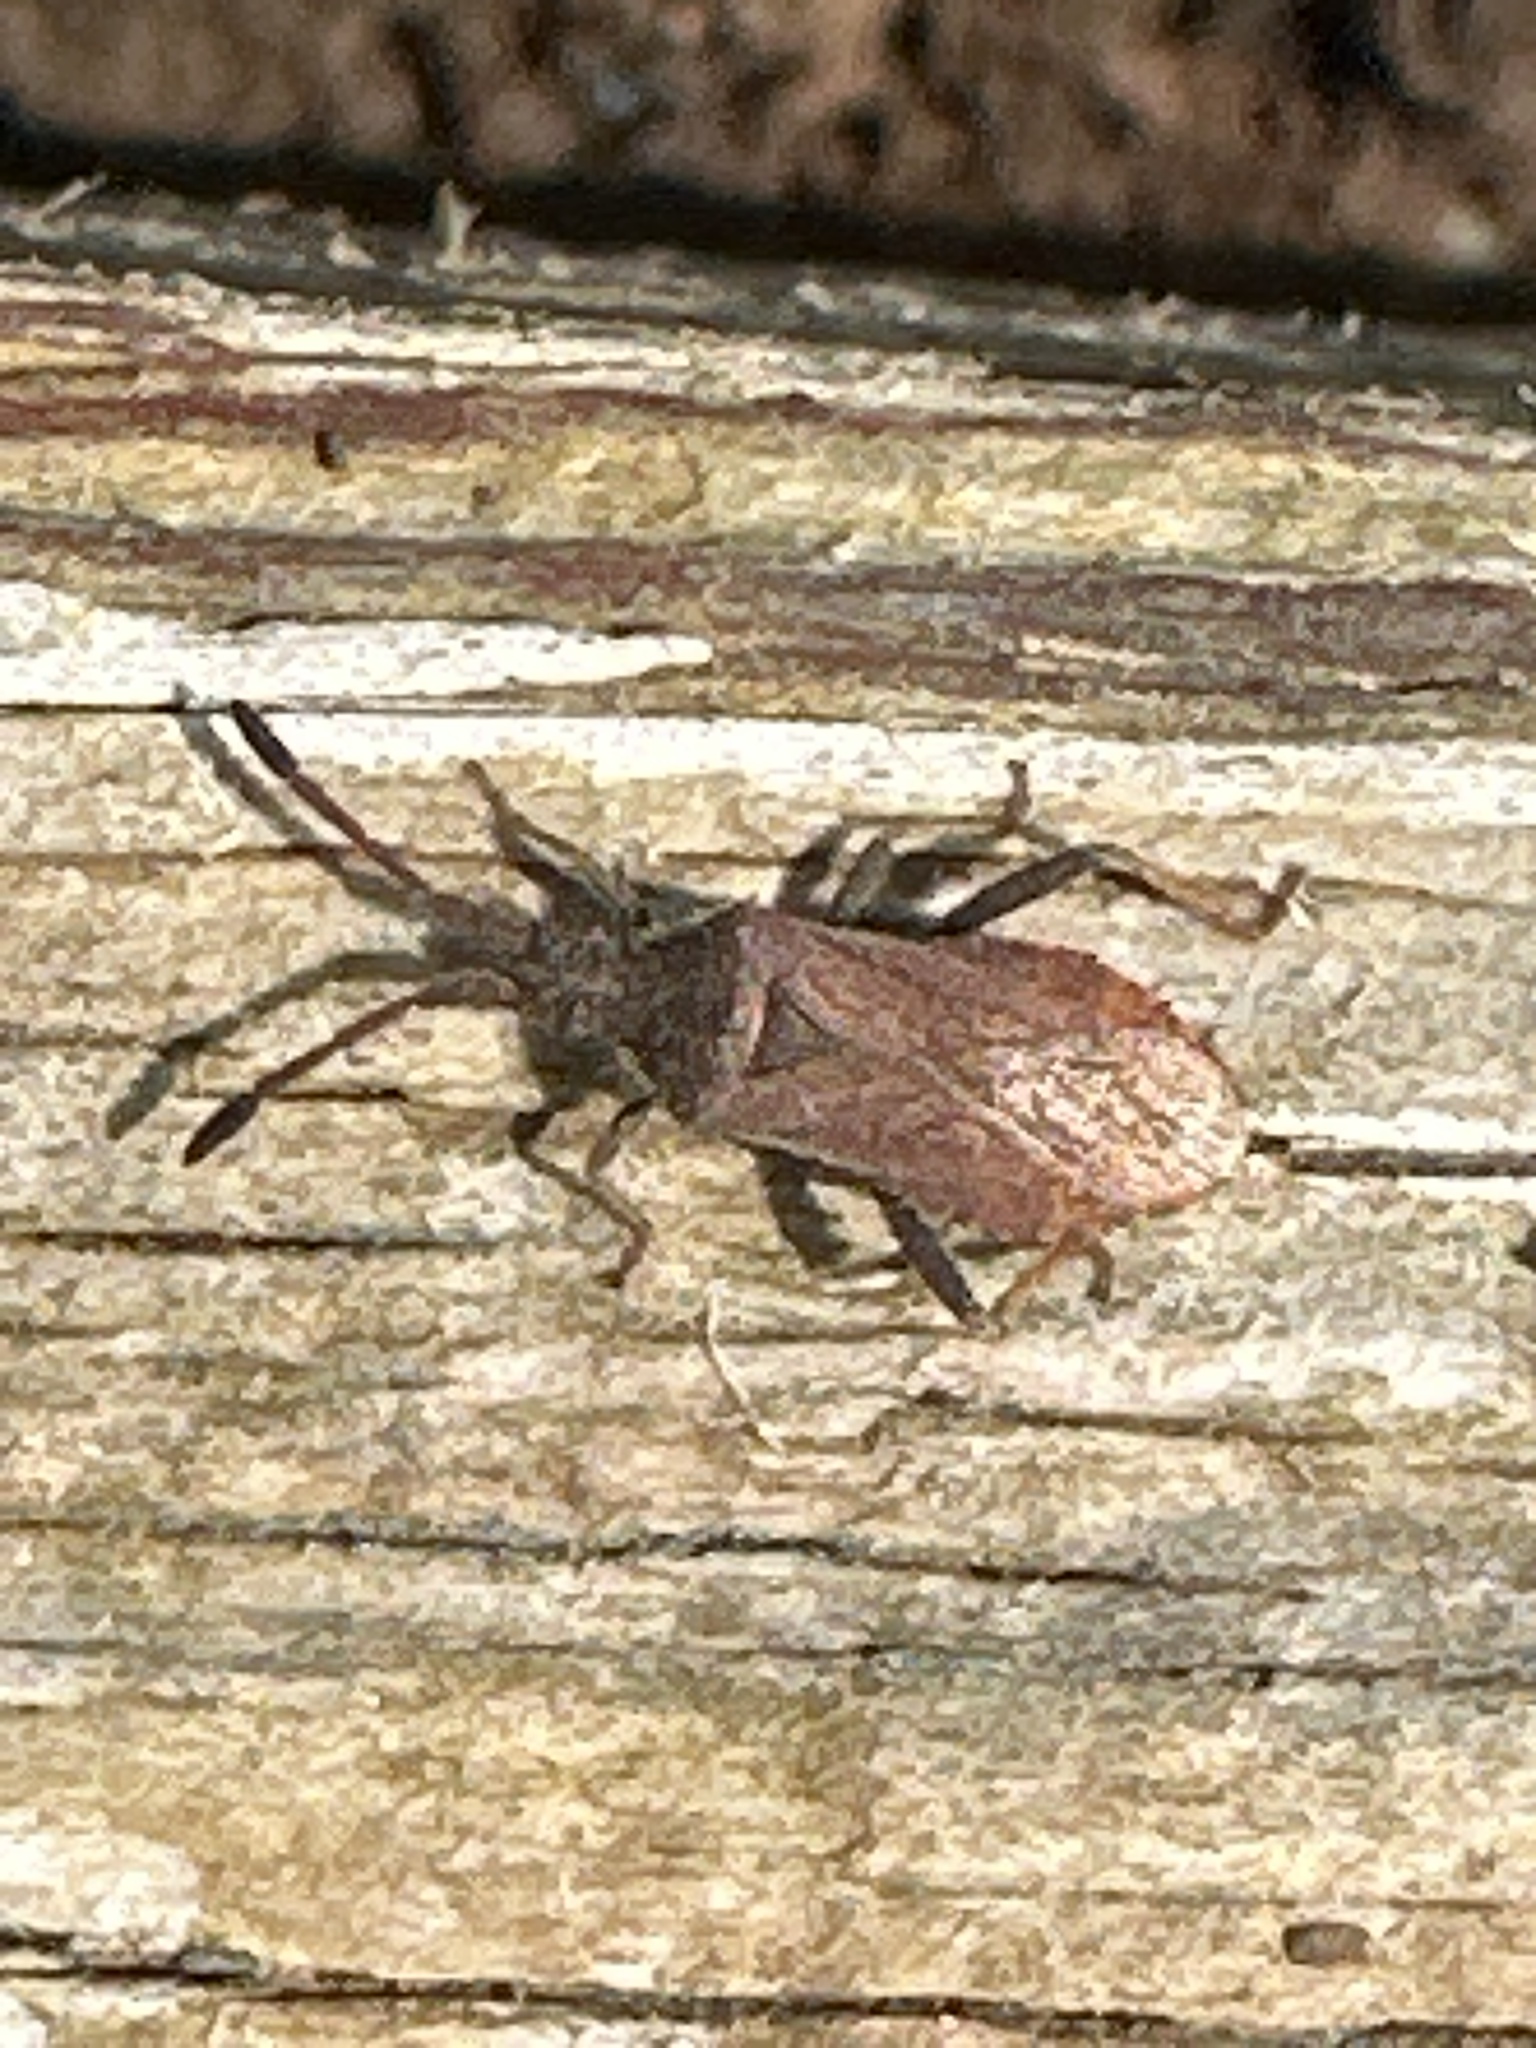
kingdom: Animalia
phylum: Arthropoda
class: Insecta
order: Hemiptera
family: Coreidae
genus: Coriomeris
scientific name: Coriomeris denticulatus
